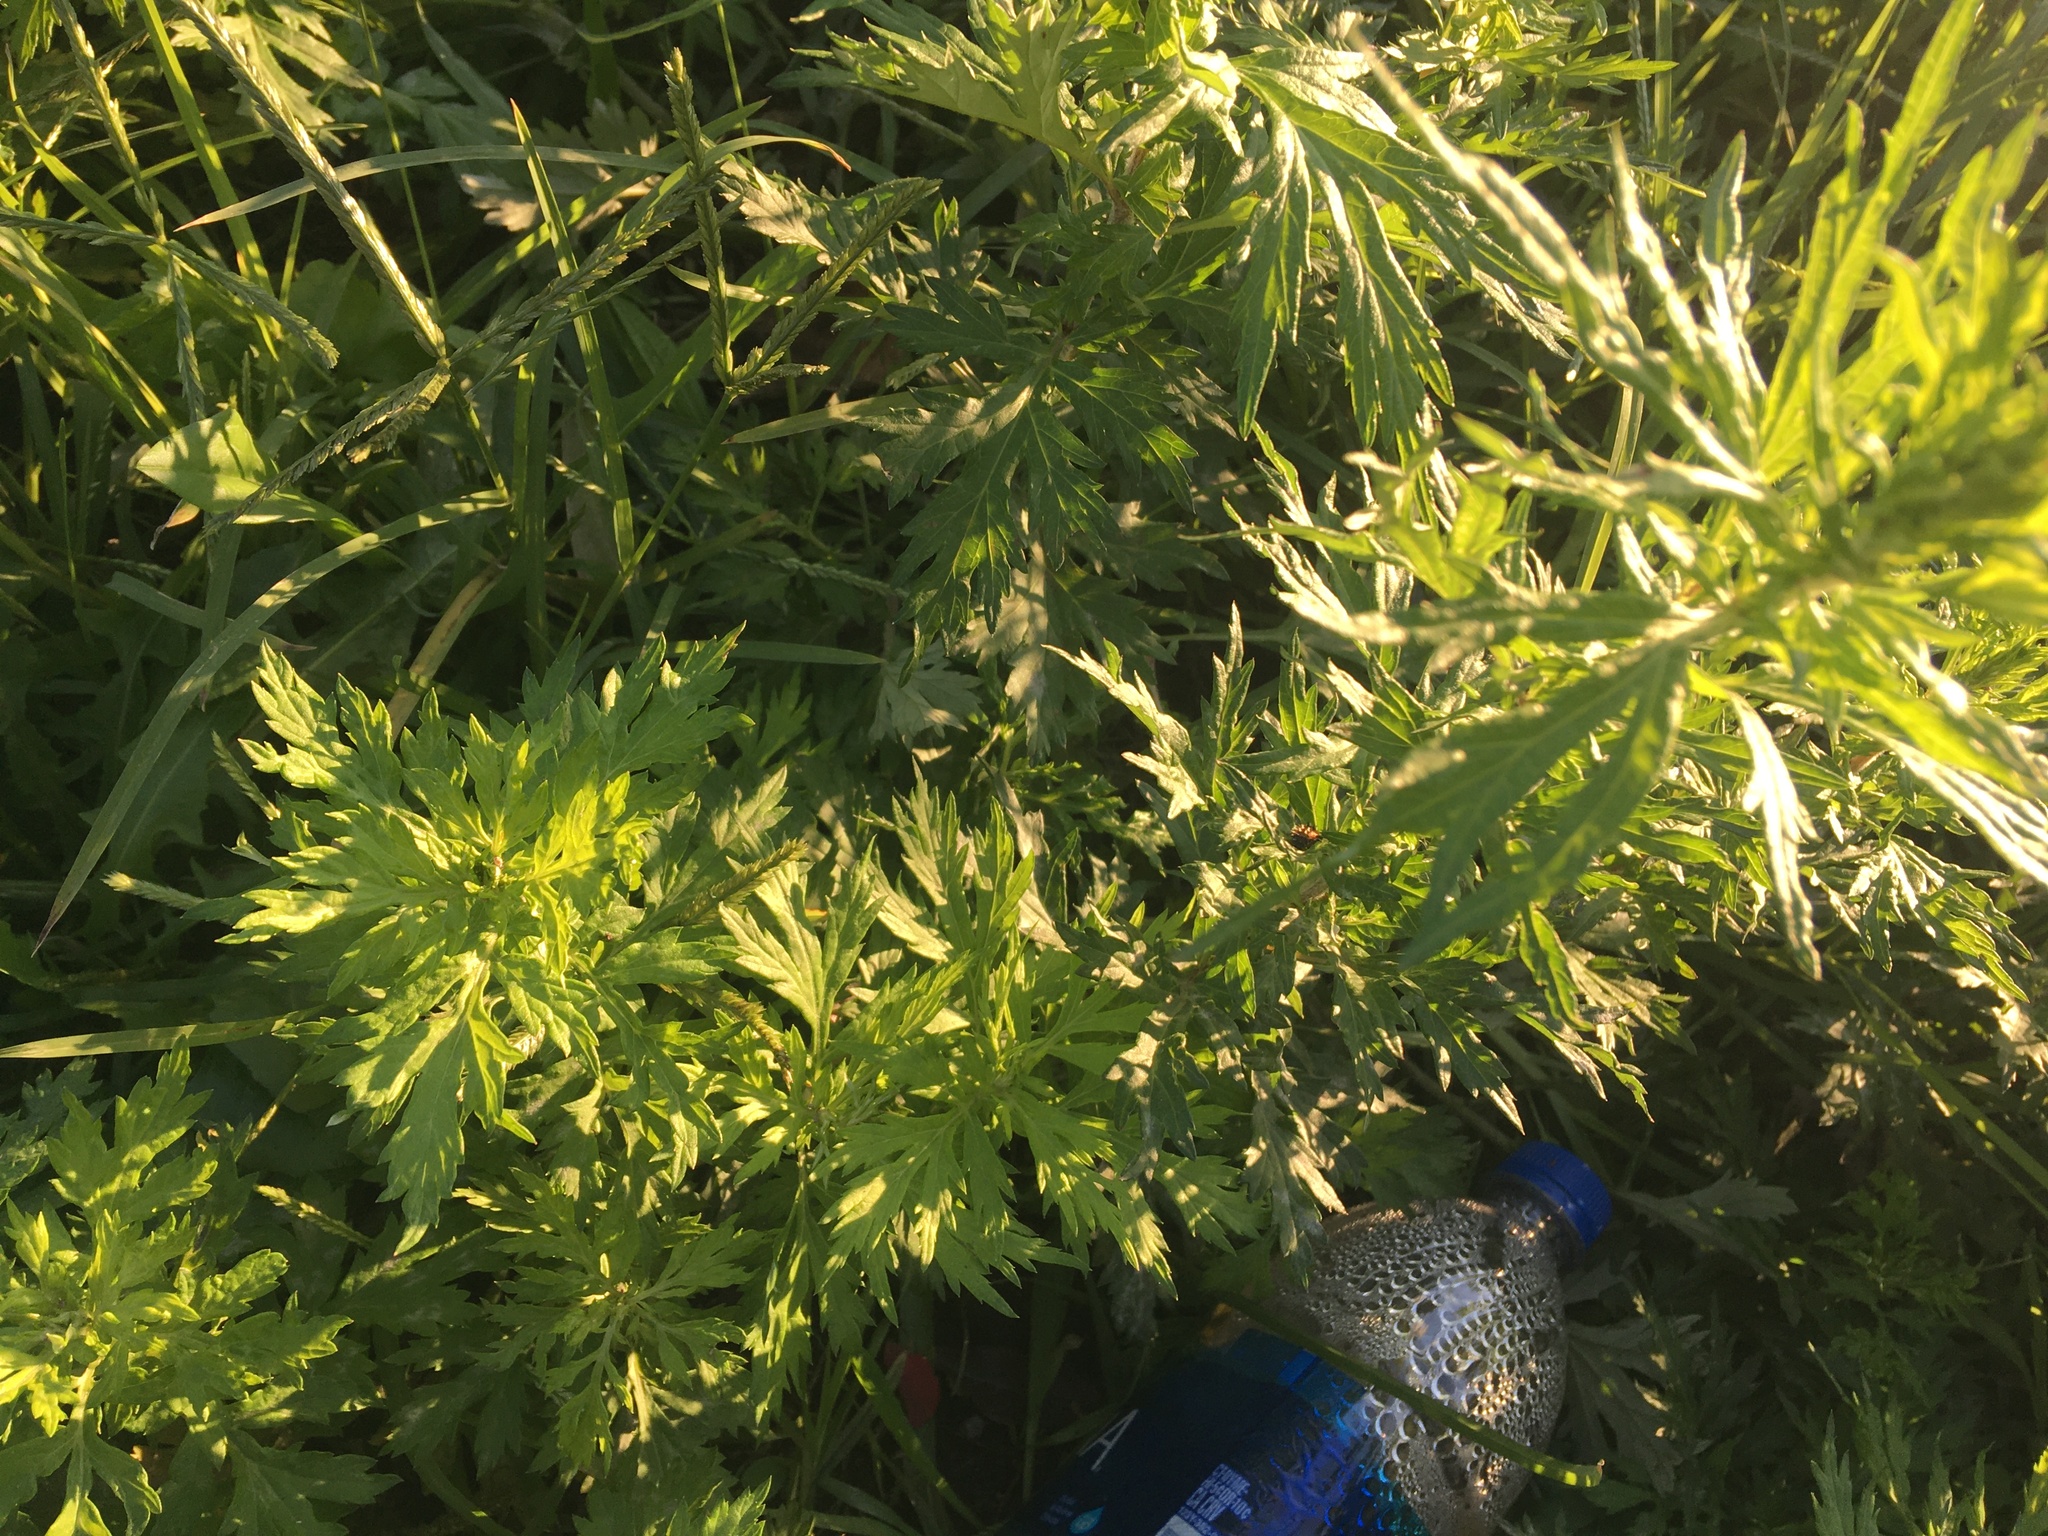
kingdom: Plantae
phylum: Tracheophyta
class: Magnoliopsida
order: Asterales
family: Asteraceae
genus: Artemisia
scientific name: Artemisia vulgaris
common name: Mugwort
